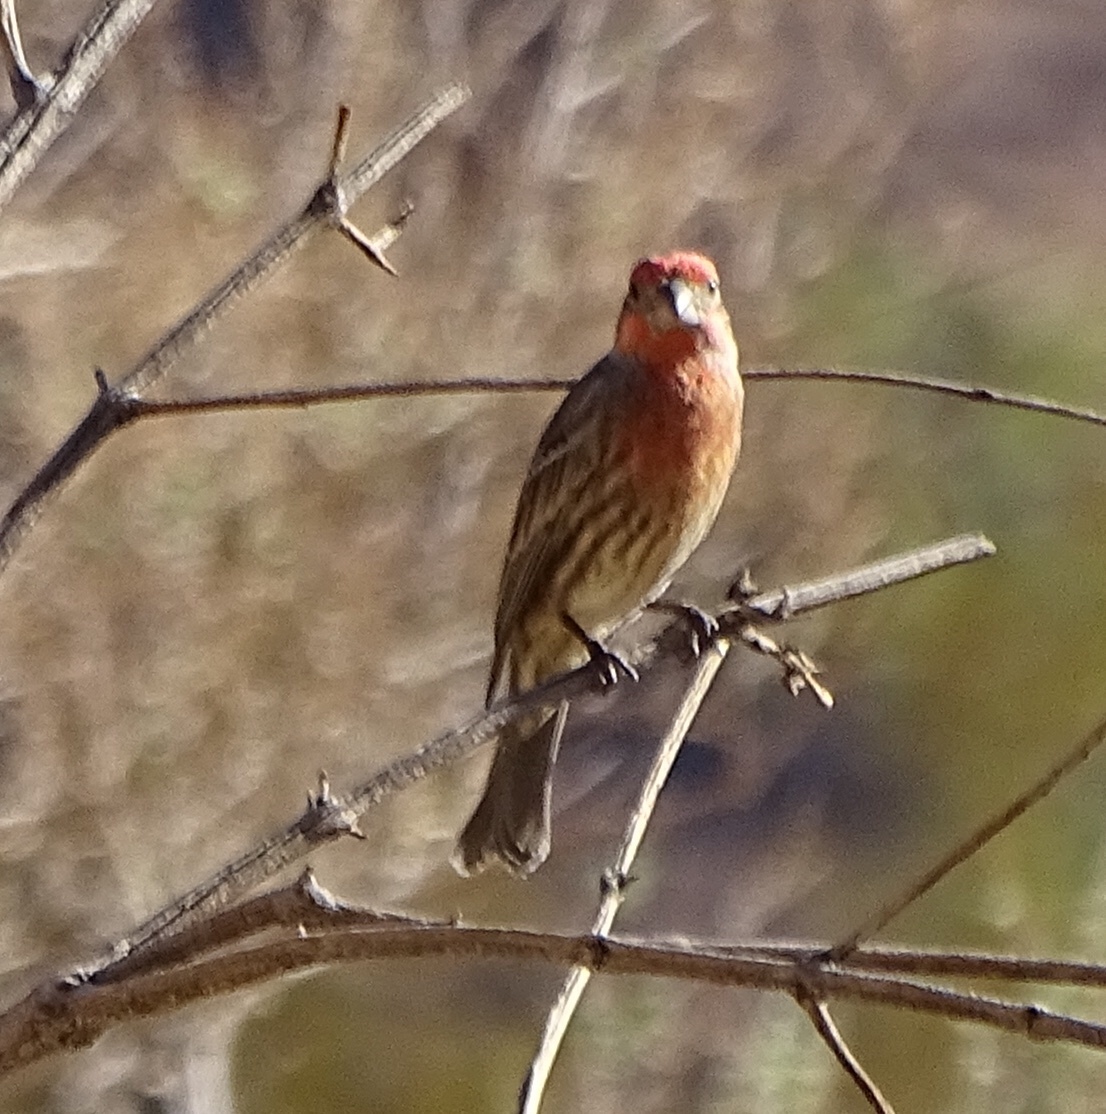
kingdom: Animalia
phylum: Chordata
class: Aves
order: Passeriformes
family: Fringillidae
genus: Haemorhous
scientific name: Haemorhous mexicanus
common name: House finch
